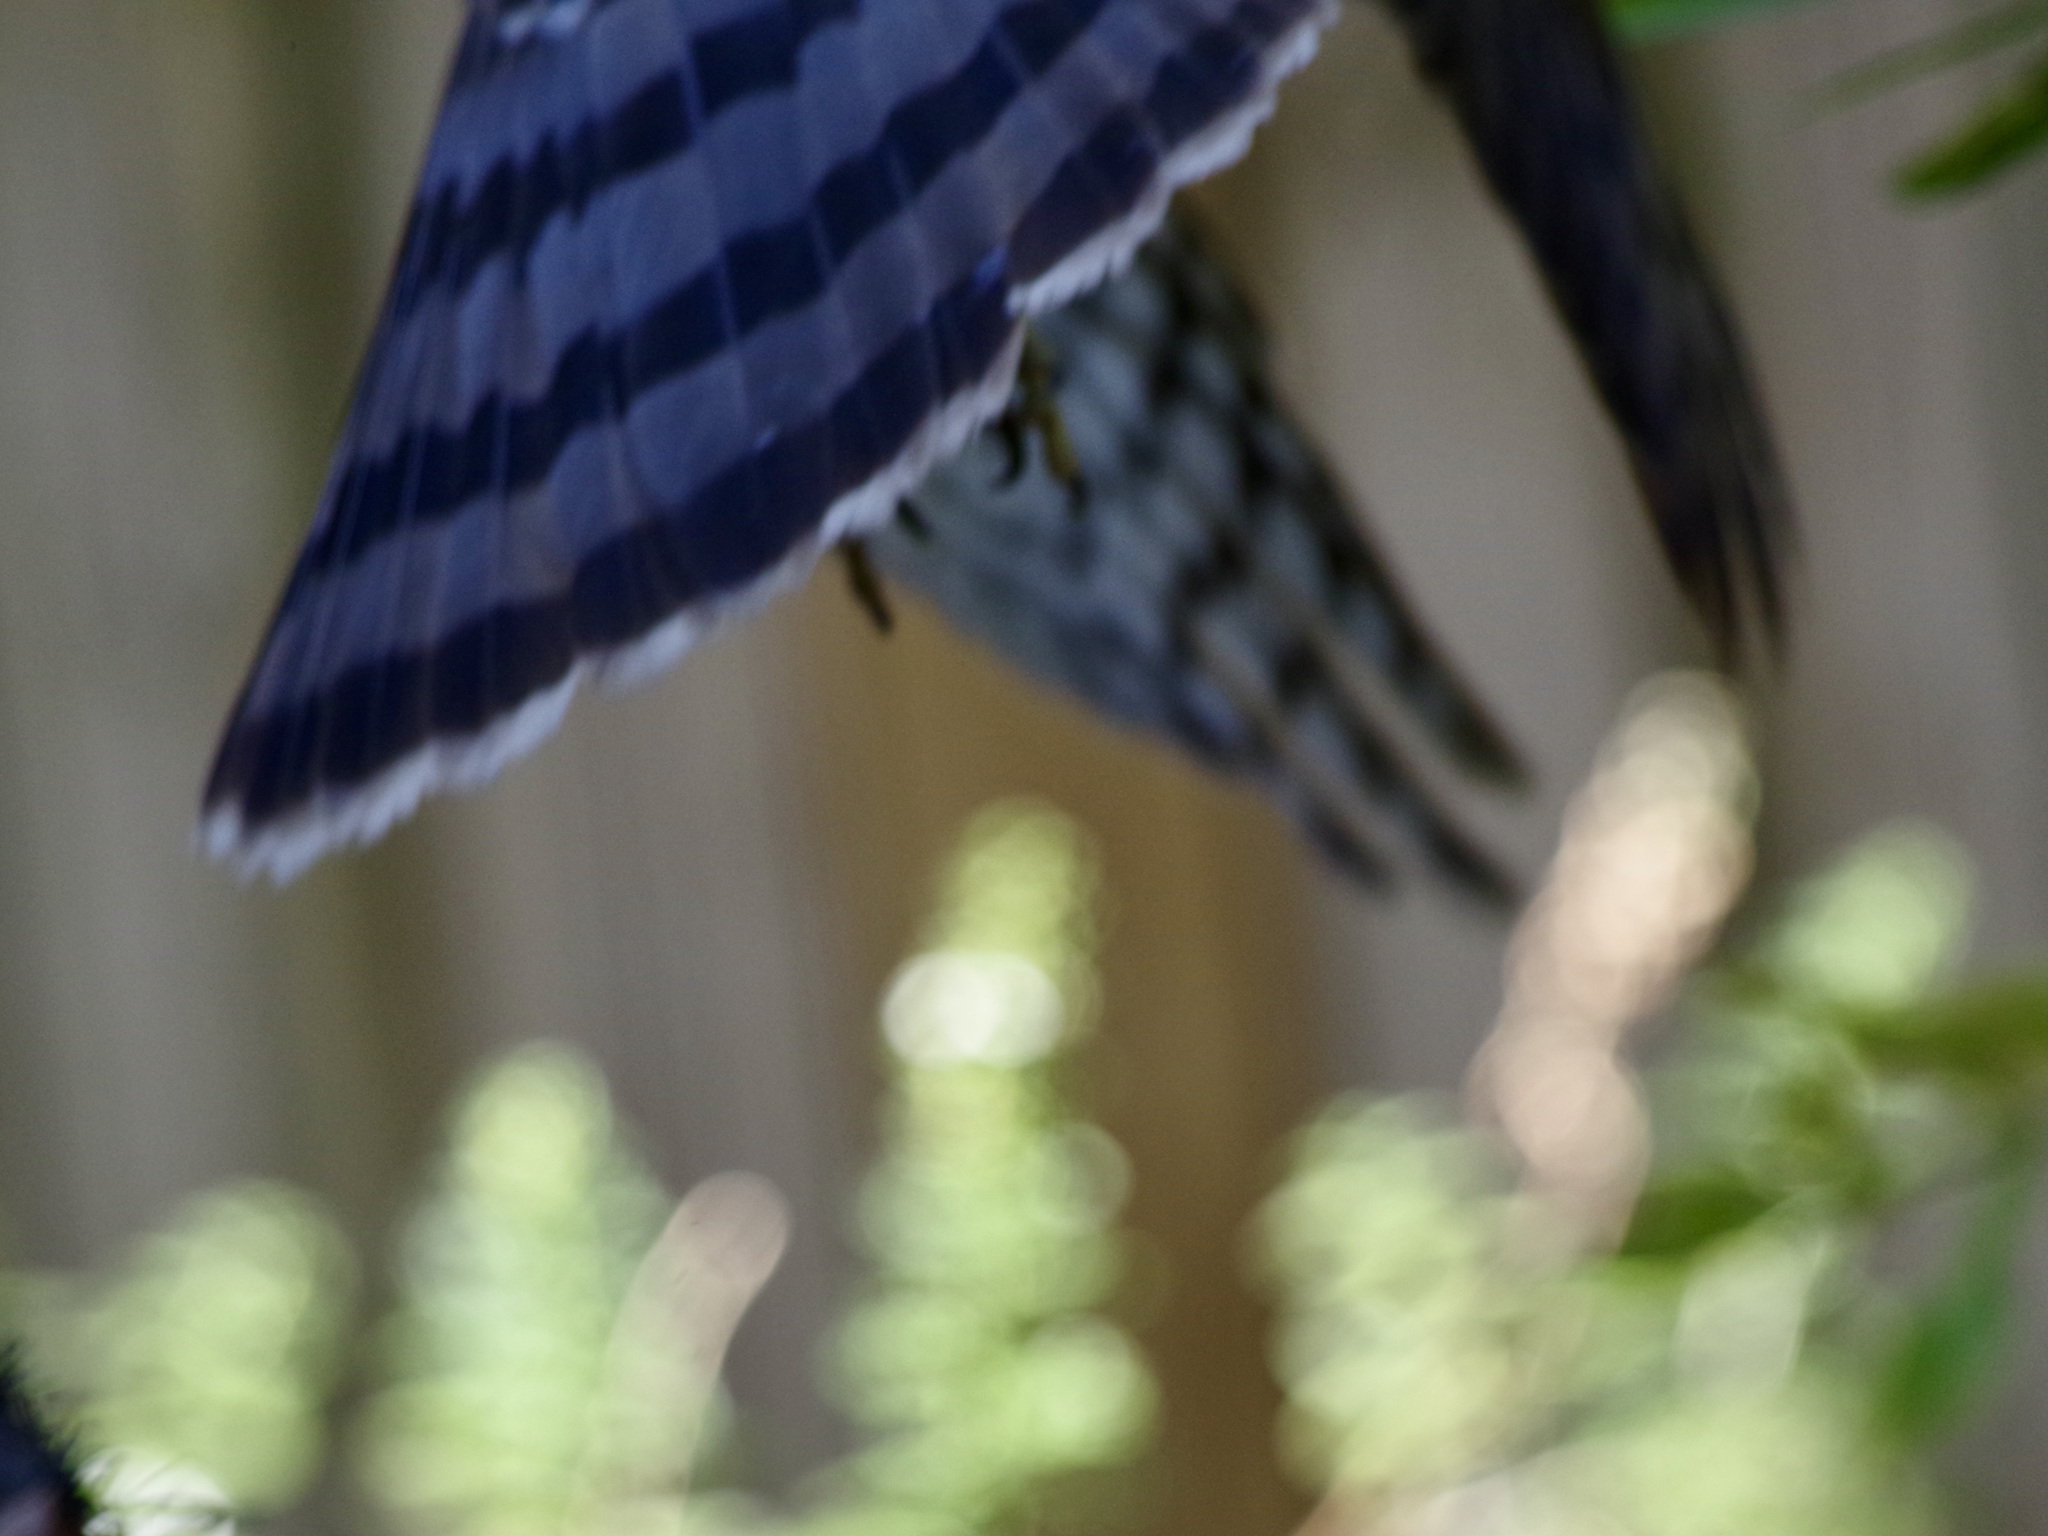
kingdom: Animalia
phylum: Chordata
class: Aves
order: Accipitriformes
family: Accipitridae
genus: Accipiter
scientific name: Accipiter cooperii
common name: Cooper's hawk
